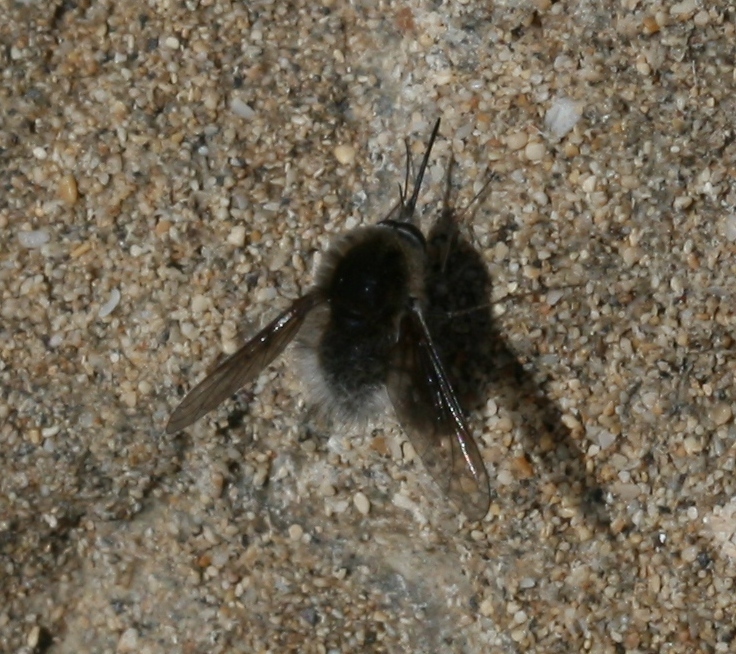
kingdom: Animalia
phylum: Arthropoda
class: Insecta
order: Diptera
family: Bombyliidae
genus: Bombylius
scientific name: Bombylius oceanus
